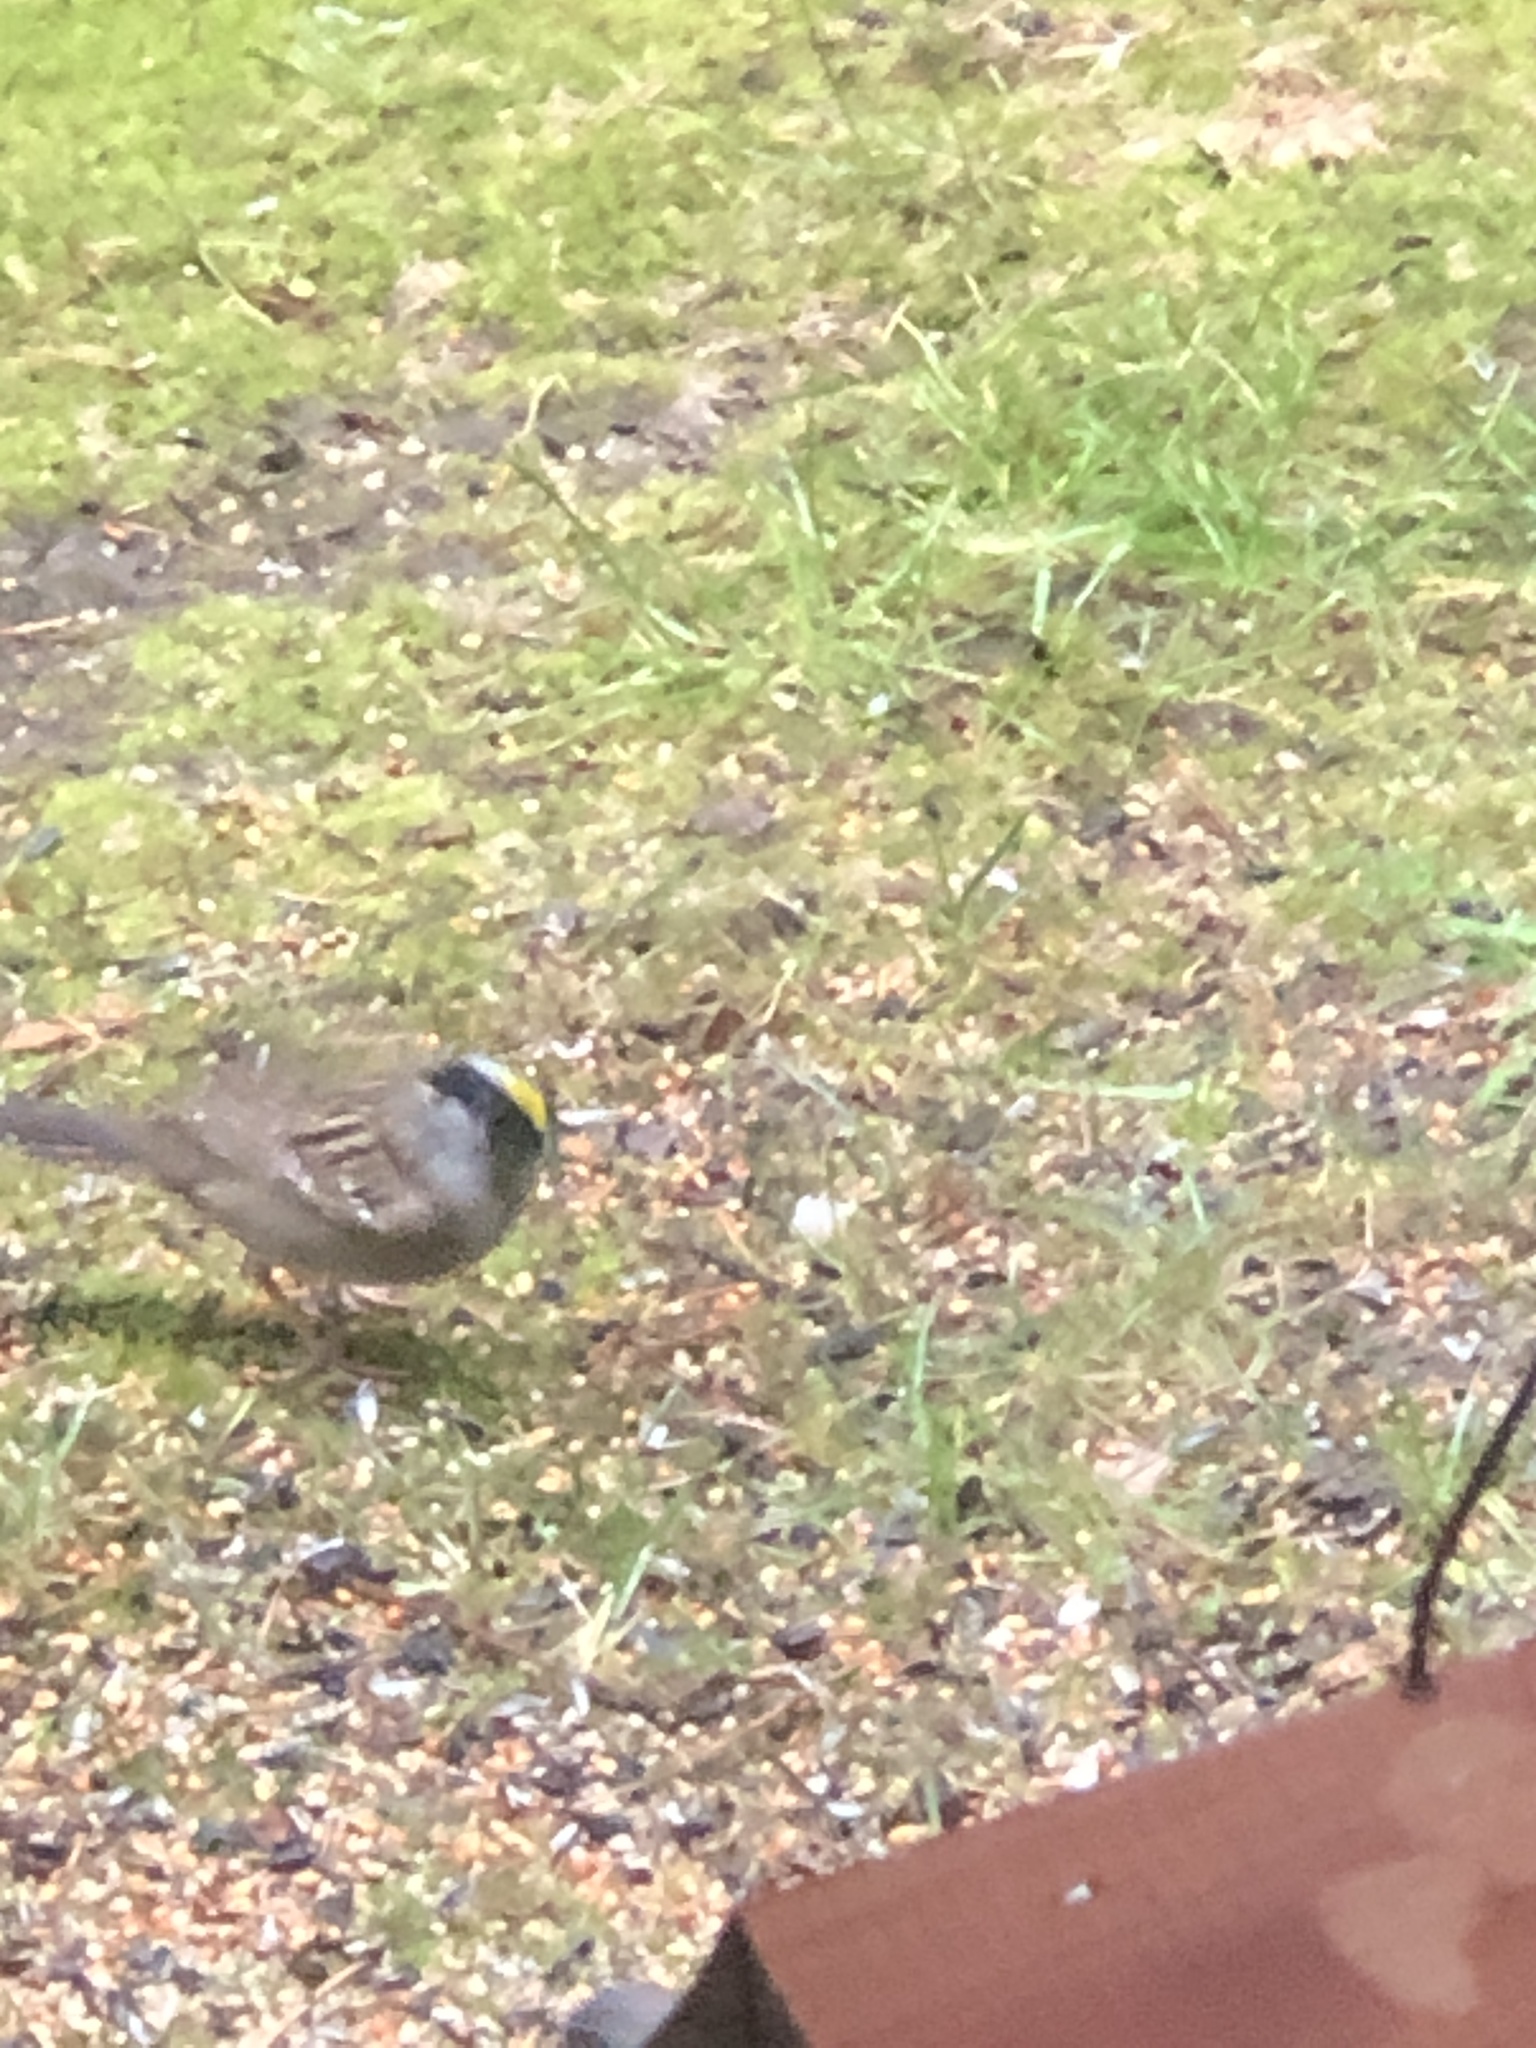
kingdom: Animalia
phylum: Chordata
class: Aves
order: Passeriformes
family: Passerellidae
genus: Zonotrichia
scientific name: Zonotrichia atricapilla
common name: Golden-crowned sparrow
